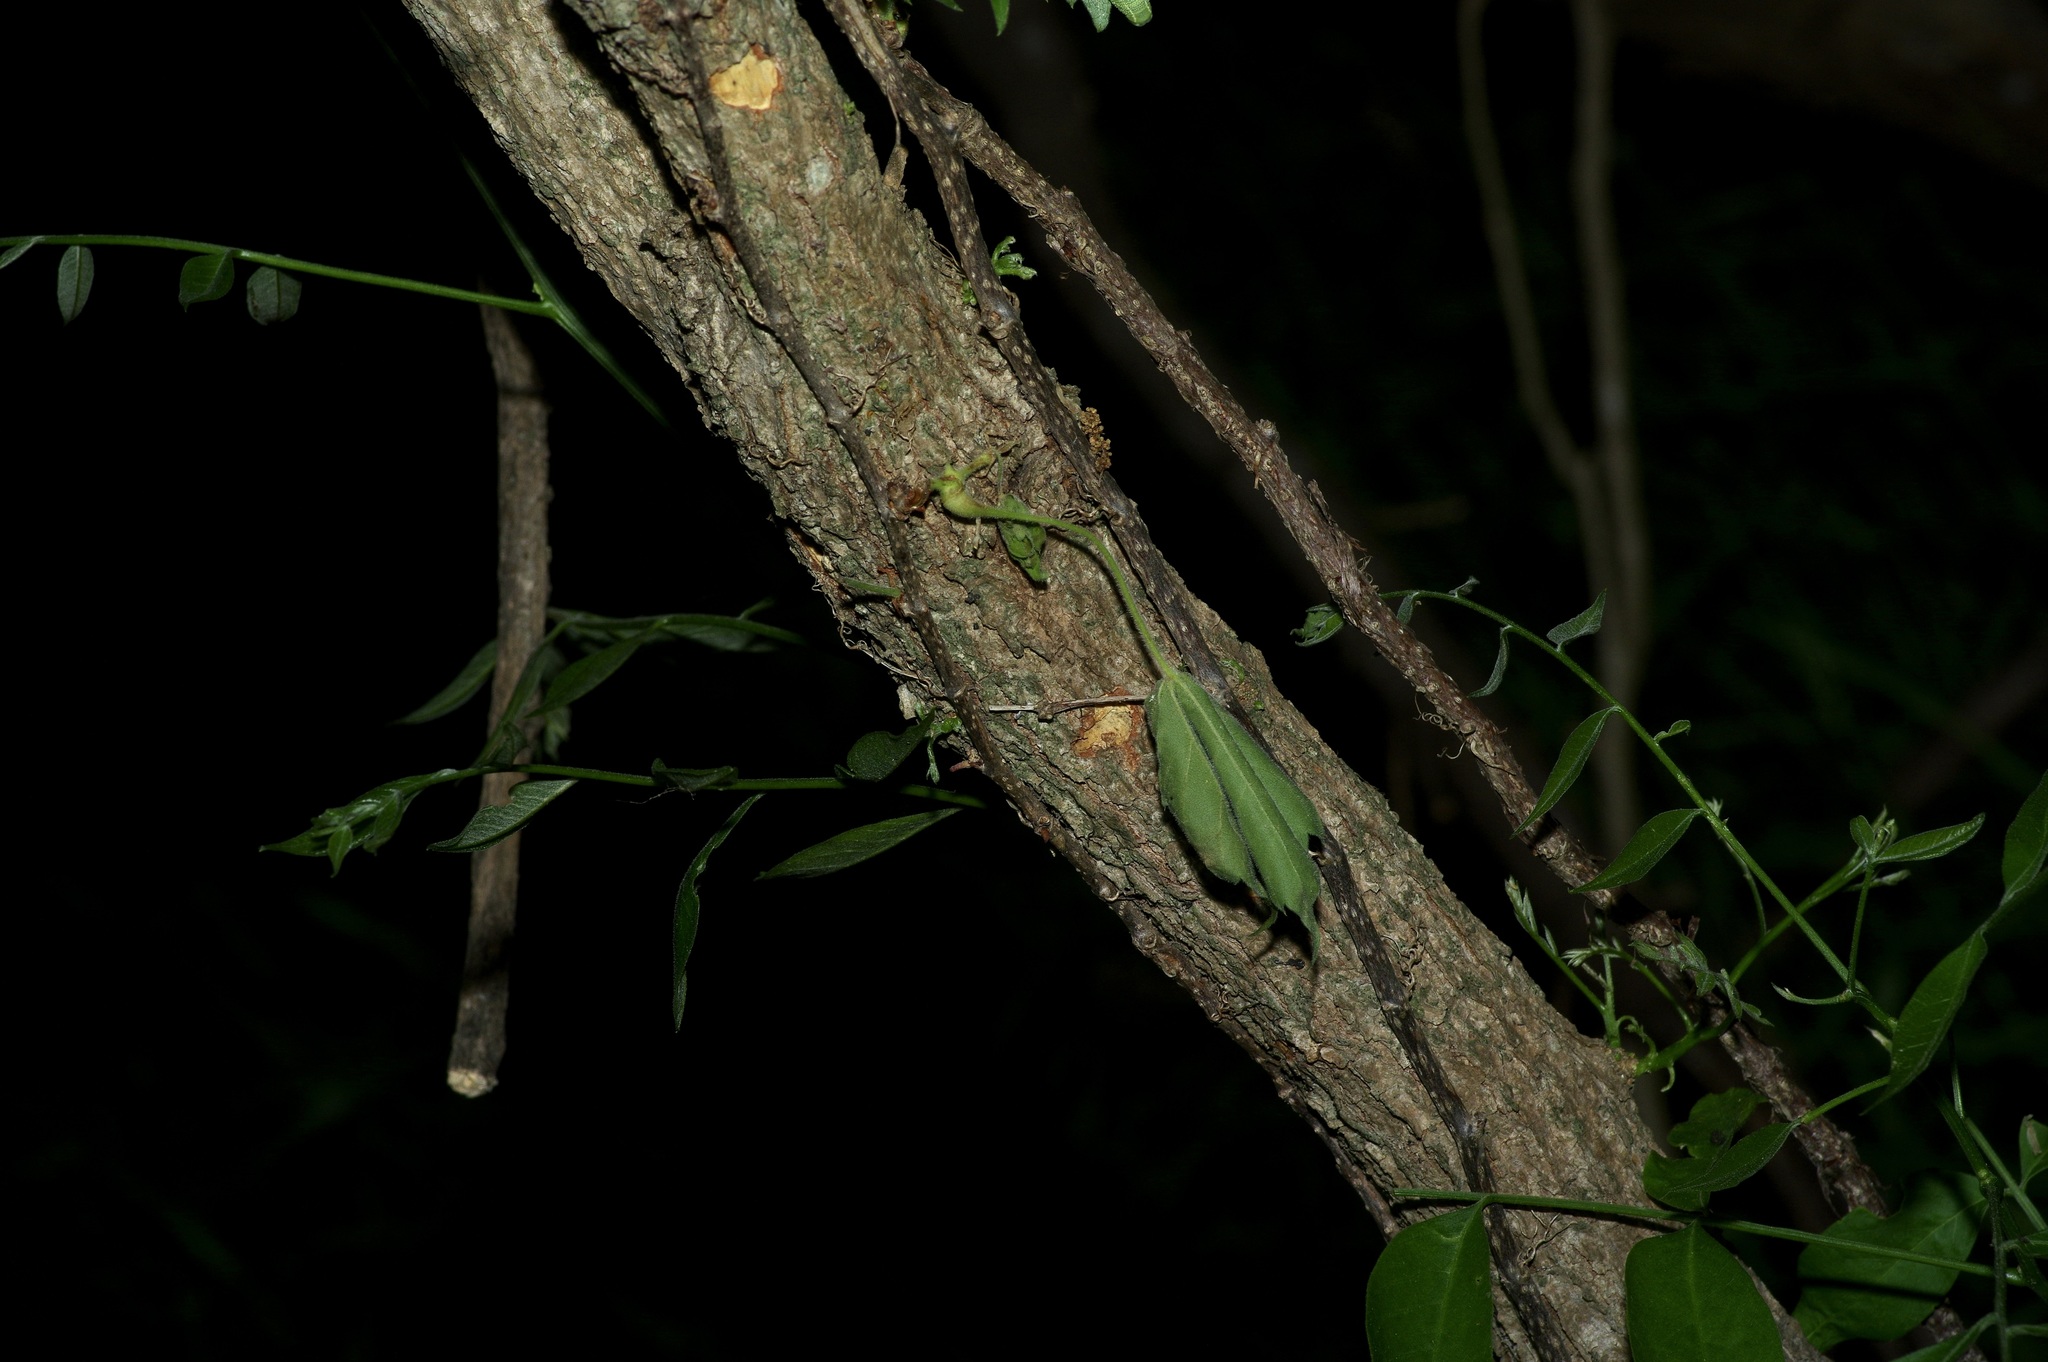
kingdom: Plantae
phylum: Tracheophyta
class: Magnoliopsida
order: Sapindales
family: Sapindaceae
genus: Sapindus
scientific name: Sapindus drummondii
